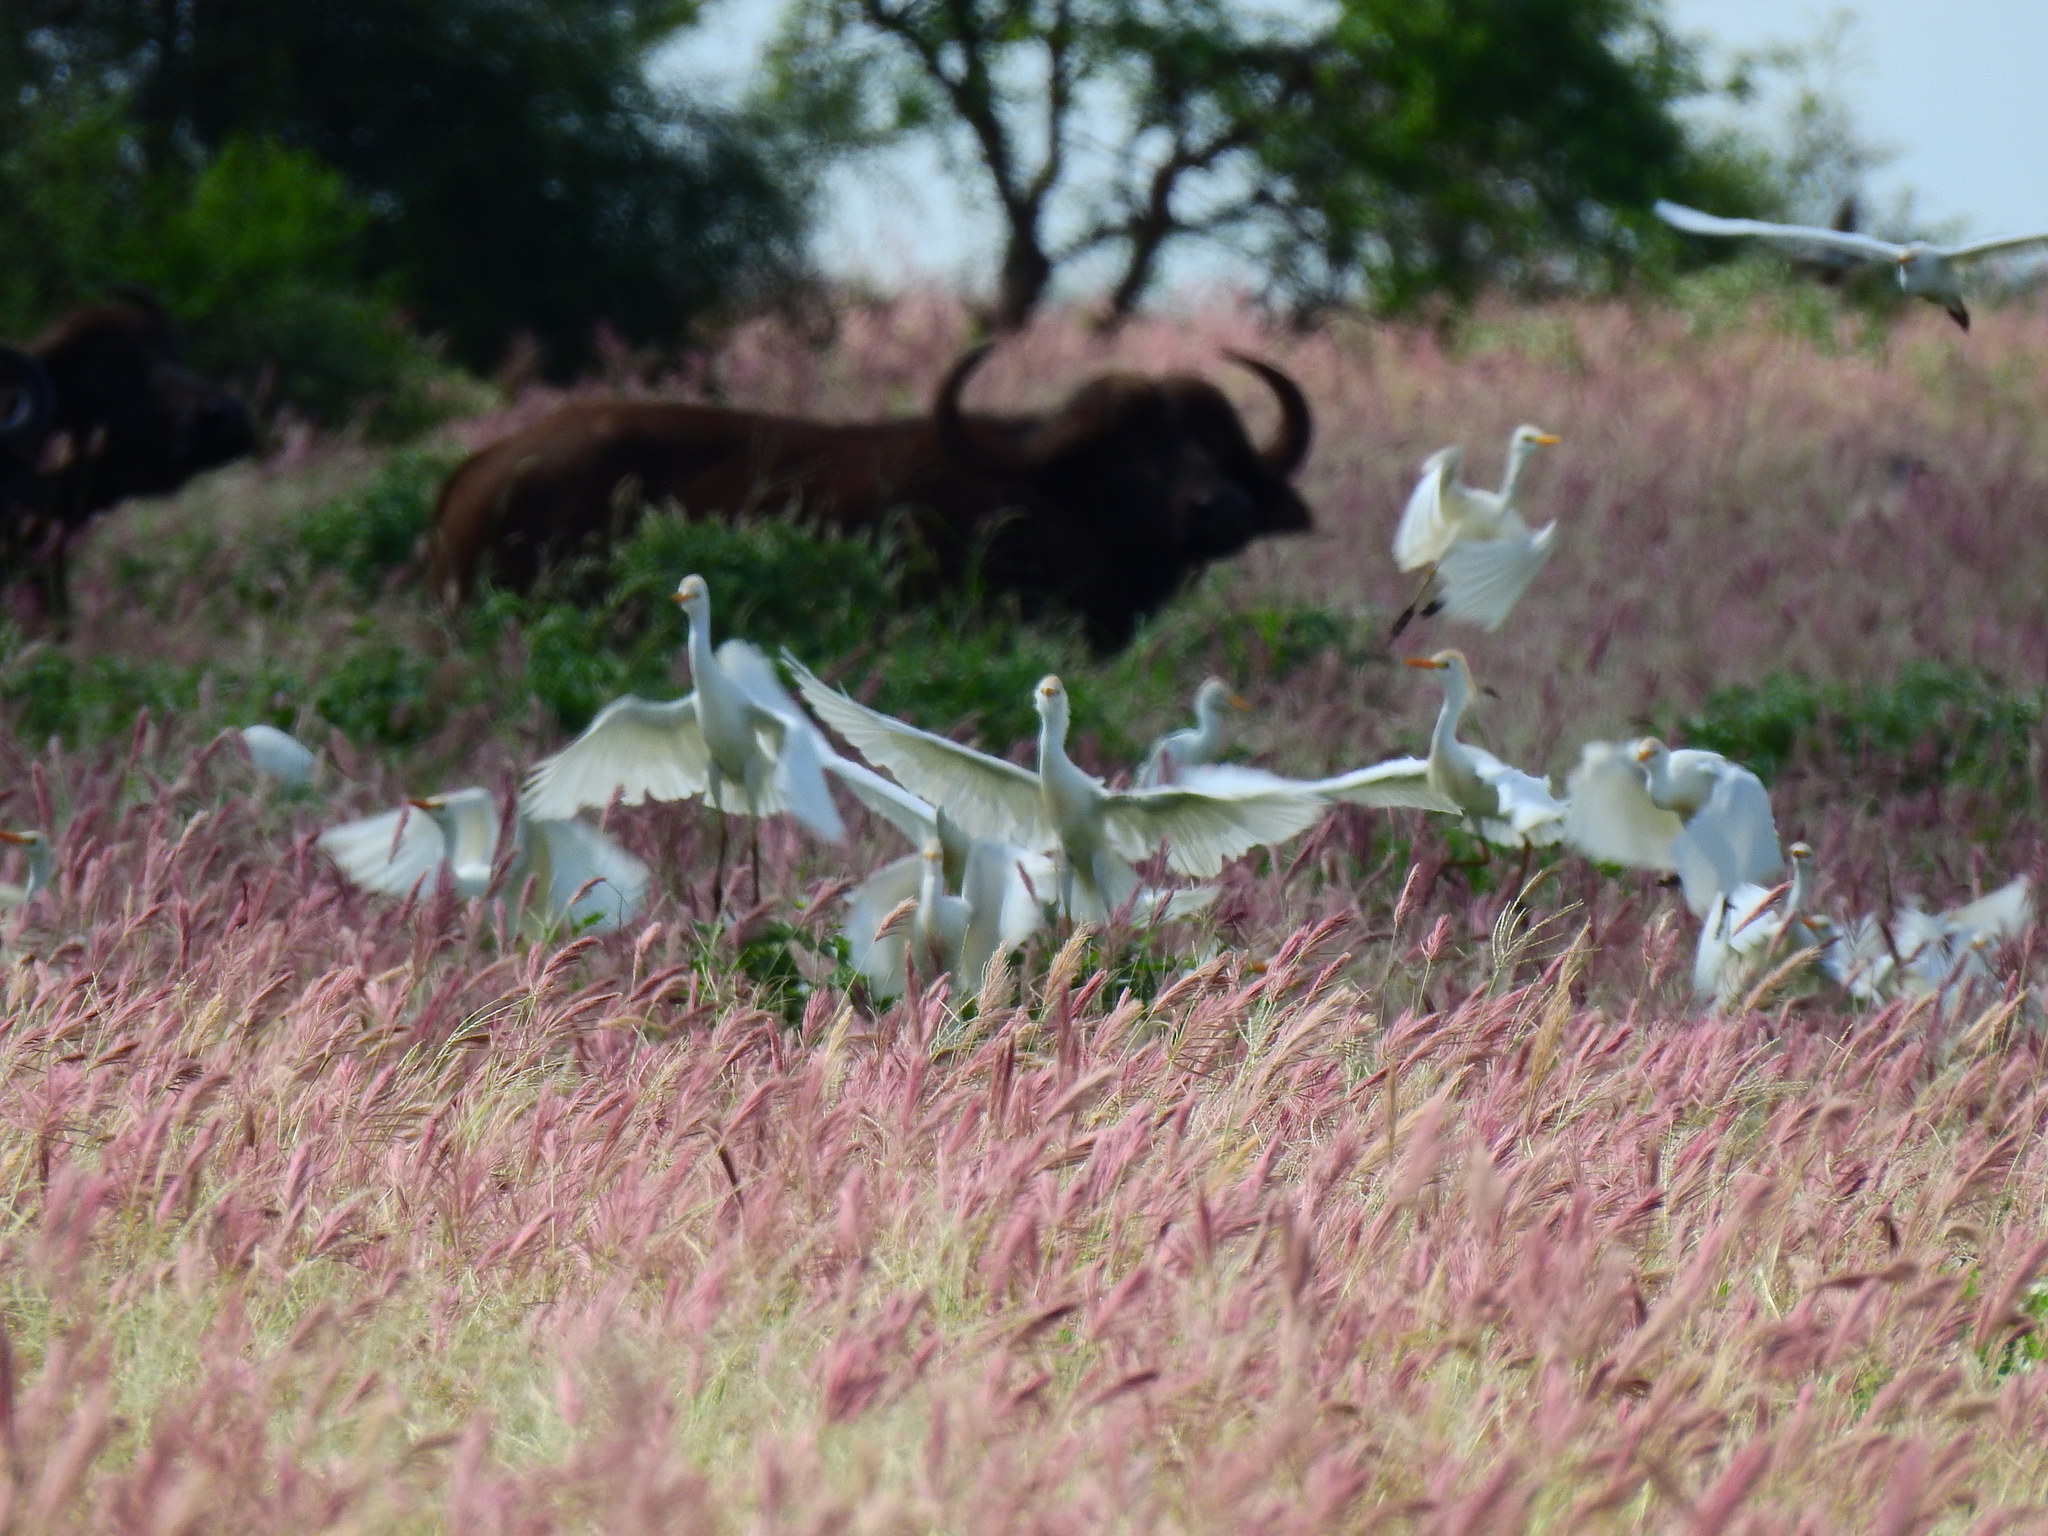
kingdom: Animalia
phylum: Chordata
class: Aves
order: Pelecaniformes
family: Ardeidae
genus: Bubulcus
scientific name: Bubulcus ibis
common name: Cattle egret
